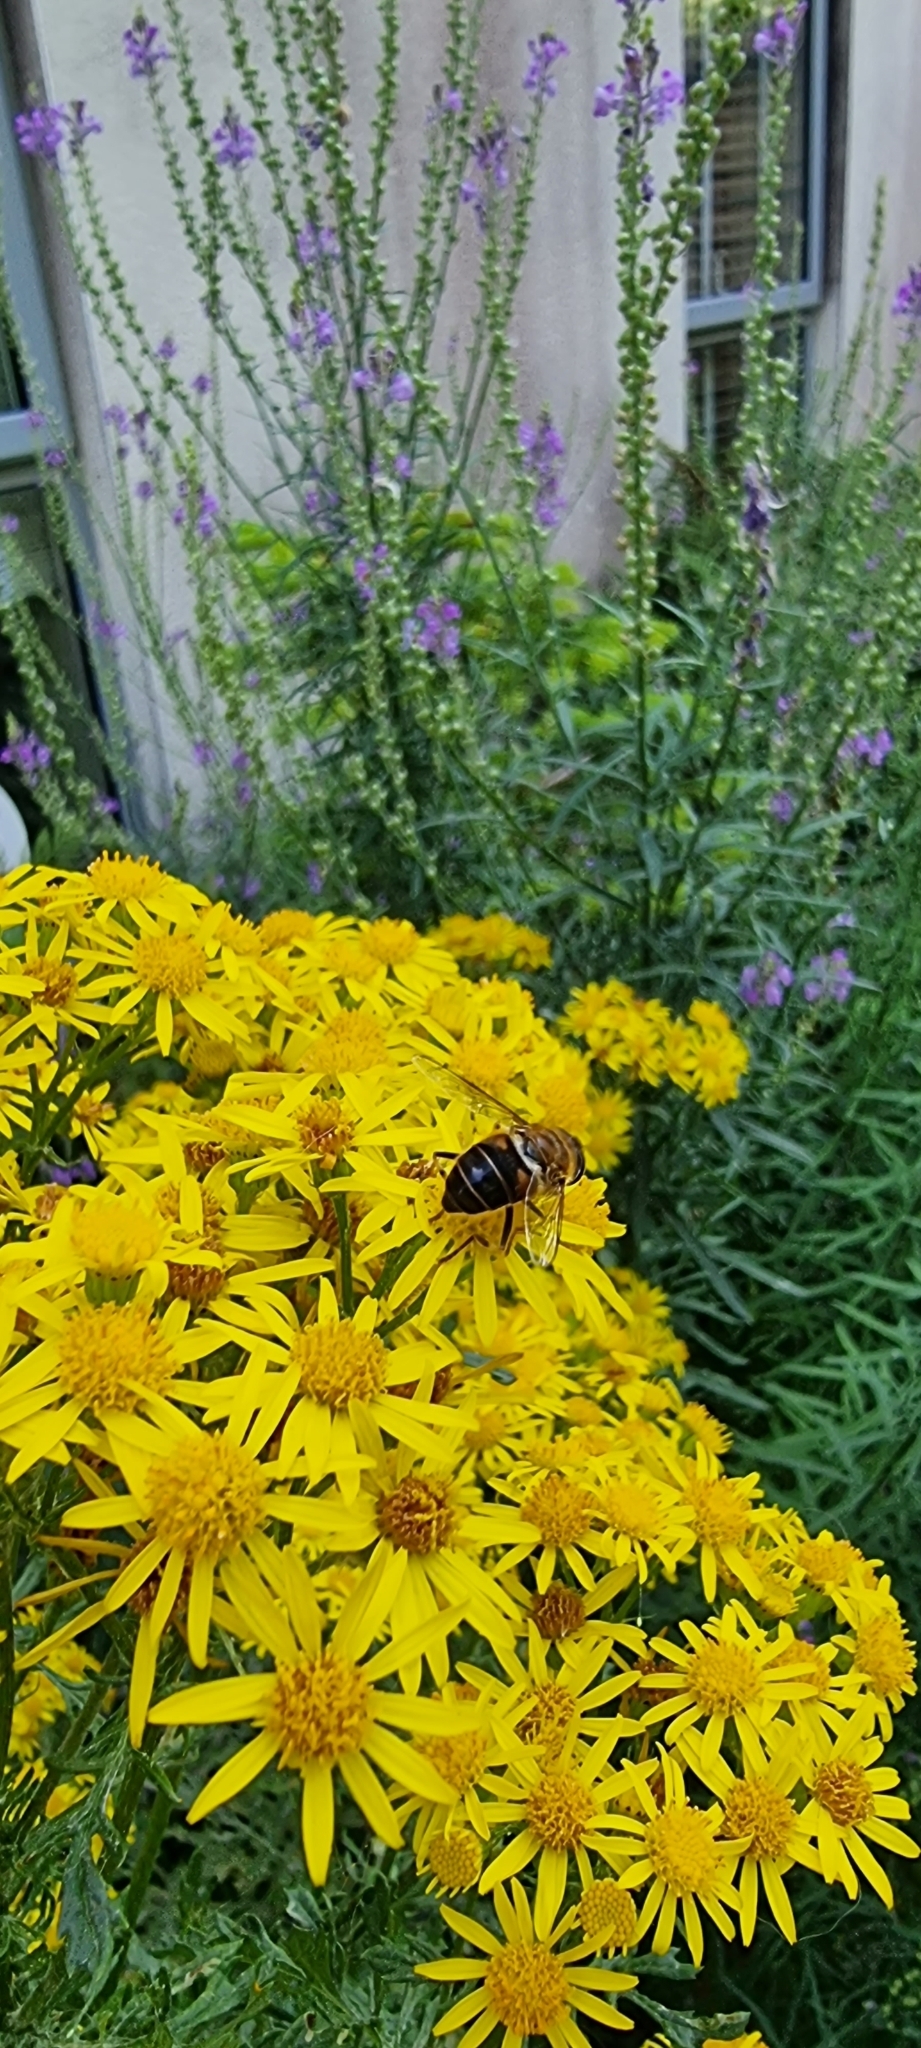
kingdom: Animalia
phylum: Arthropoda
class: Insecta
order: Diptera
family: Syrphidae
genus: Eristalis
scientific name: Eristalis pertinax
